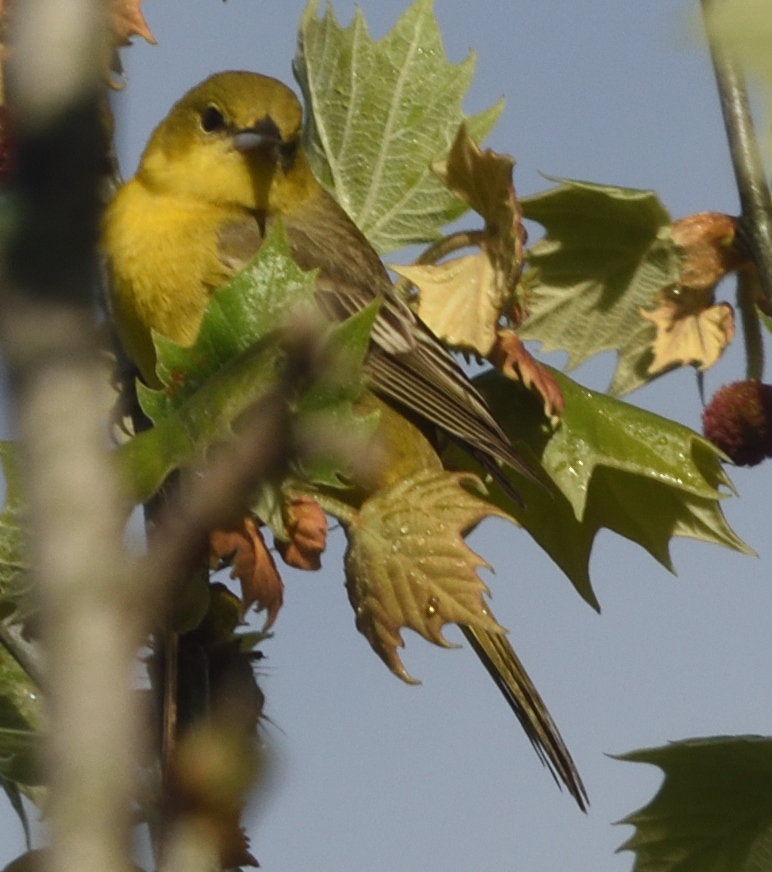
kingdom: Animalia
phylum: Chordata
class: Aves
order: Passeriformes
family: Icteridae
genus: Icterus
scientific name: Icterus spurius
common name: Orchard oriole
